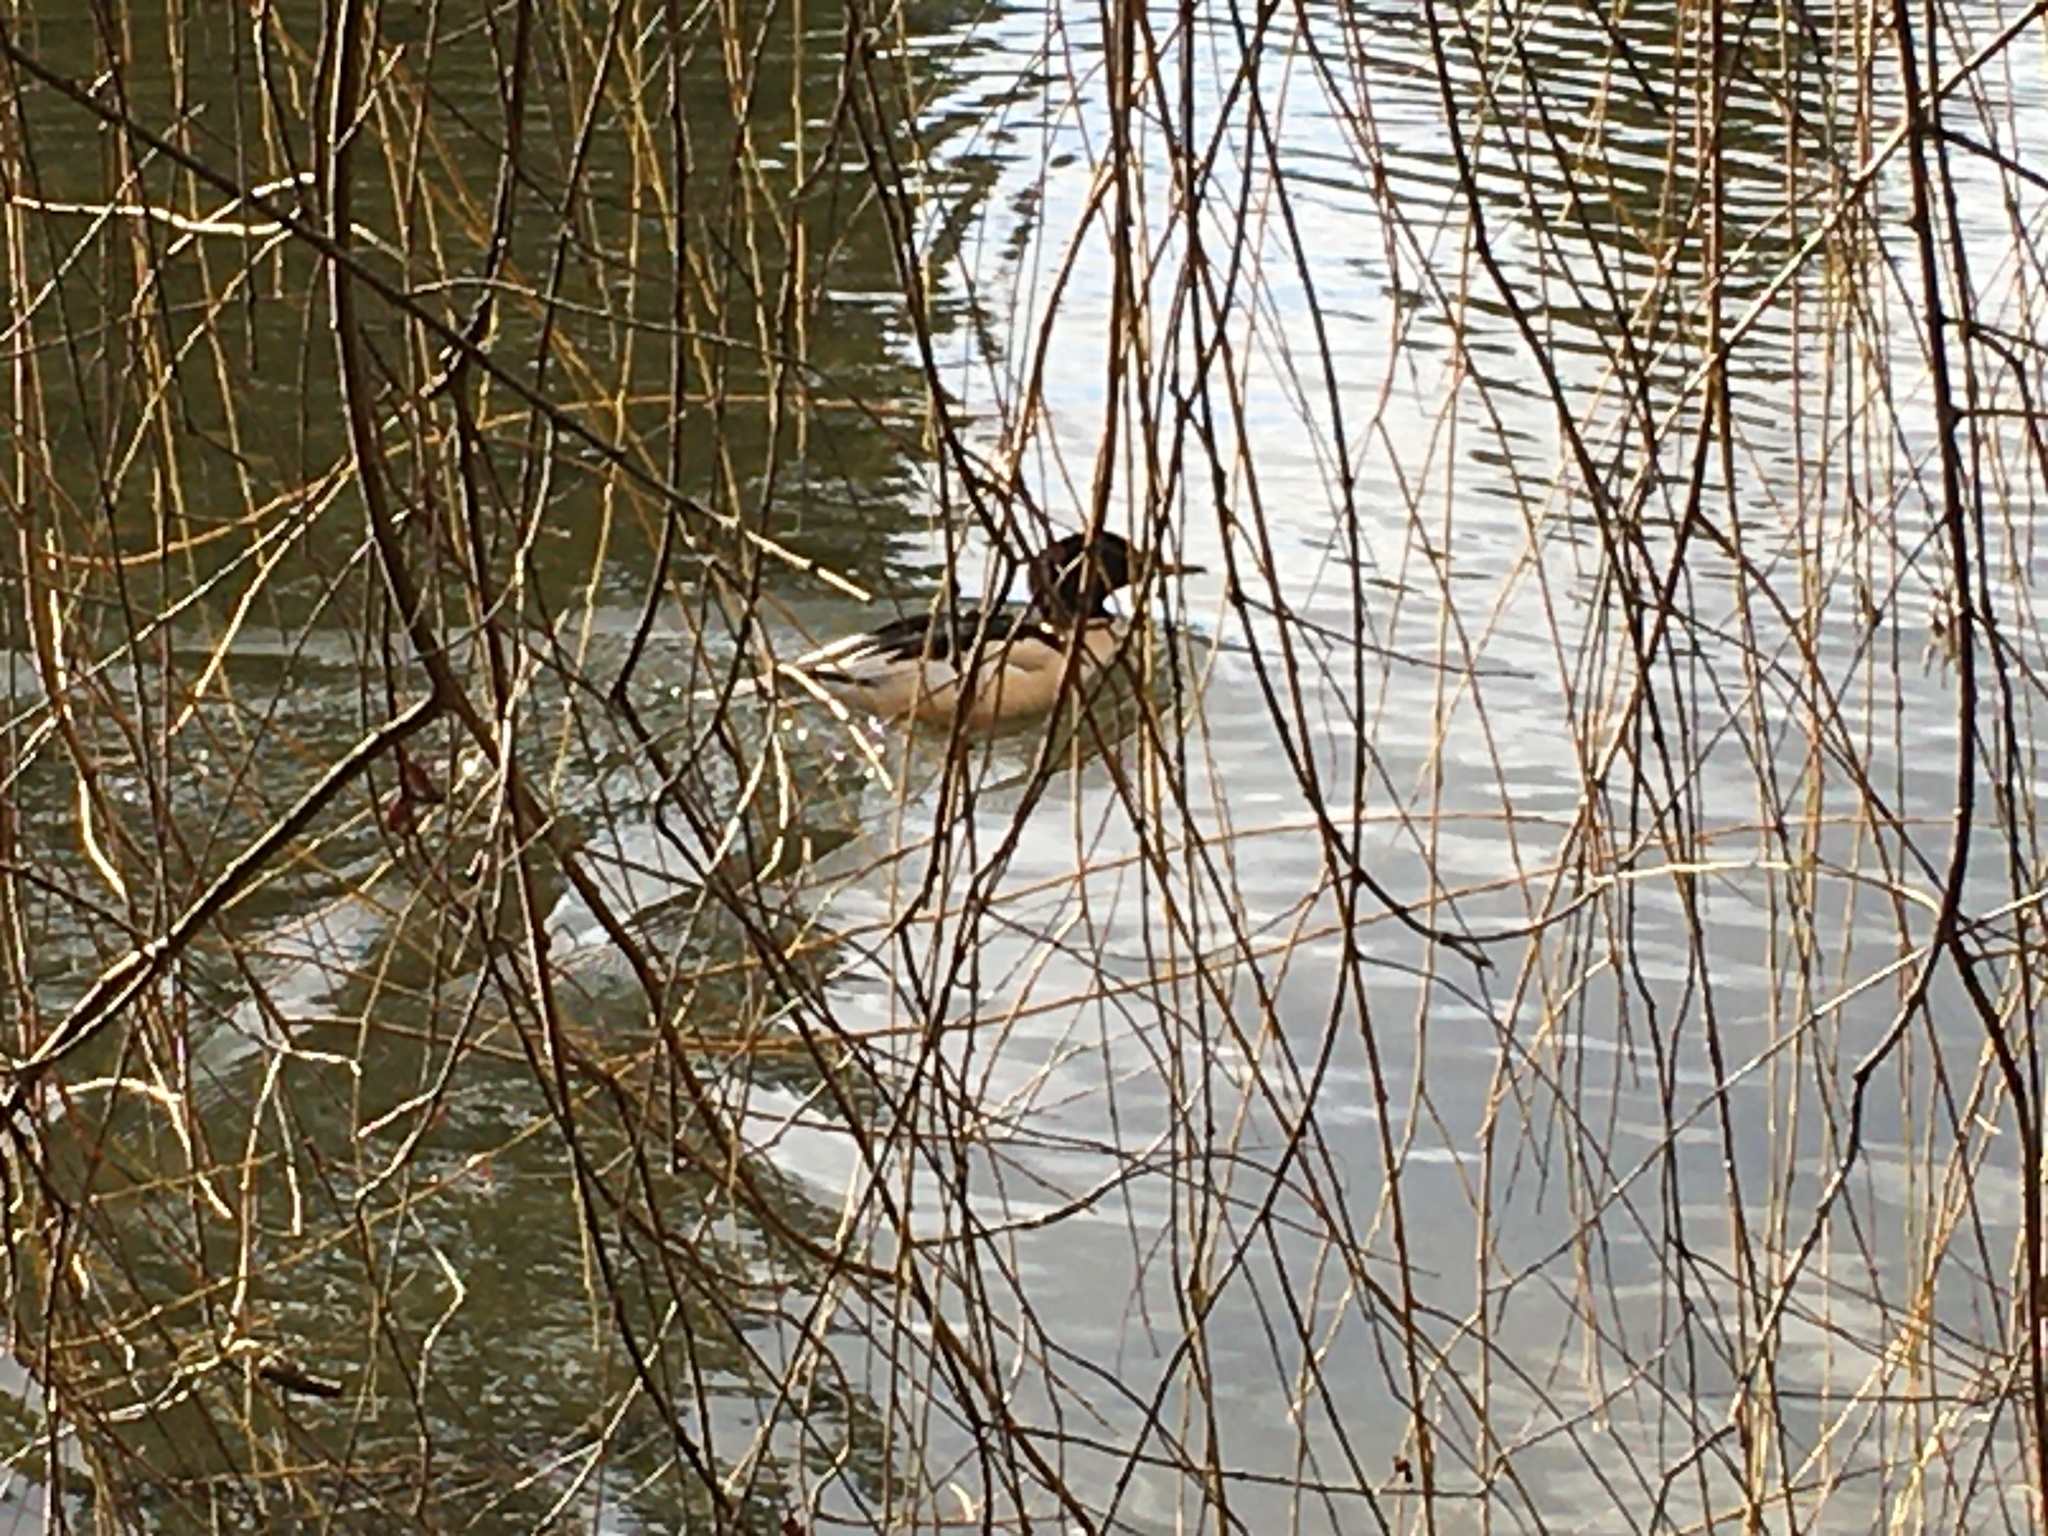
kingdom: Animalia
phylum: Chordata
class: Aves
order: Anseriformes
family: Anatidae
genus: Mergus
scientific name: Mergus merganser
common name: Common merganser
